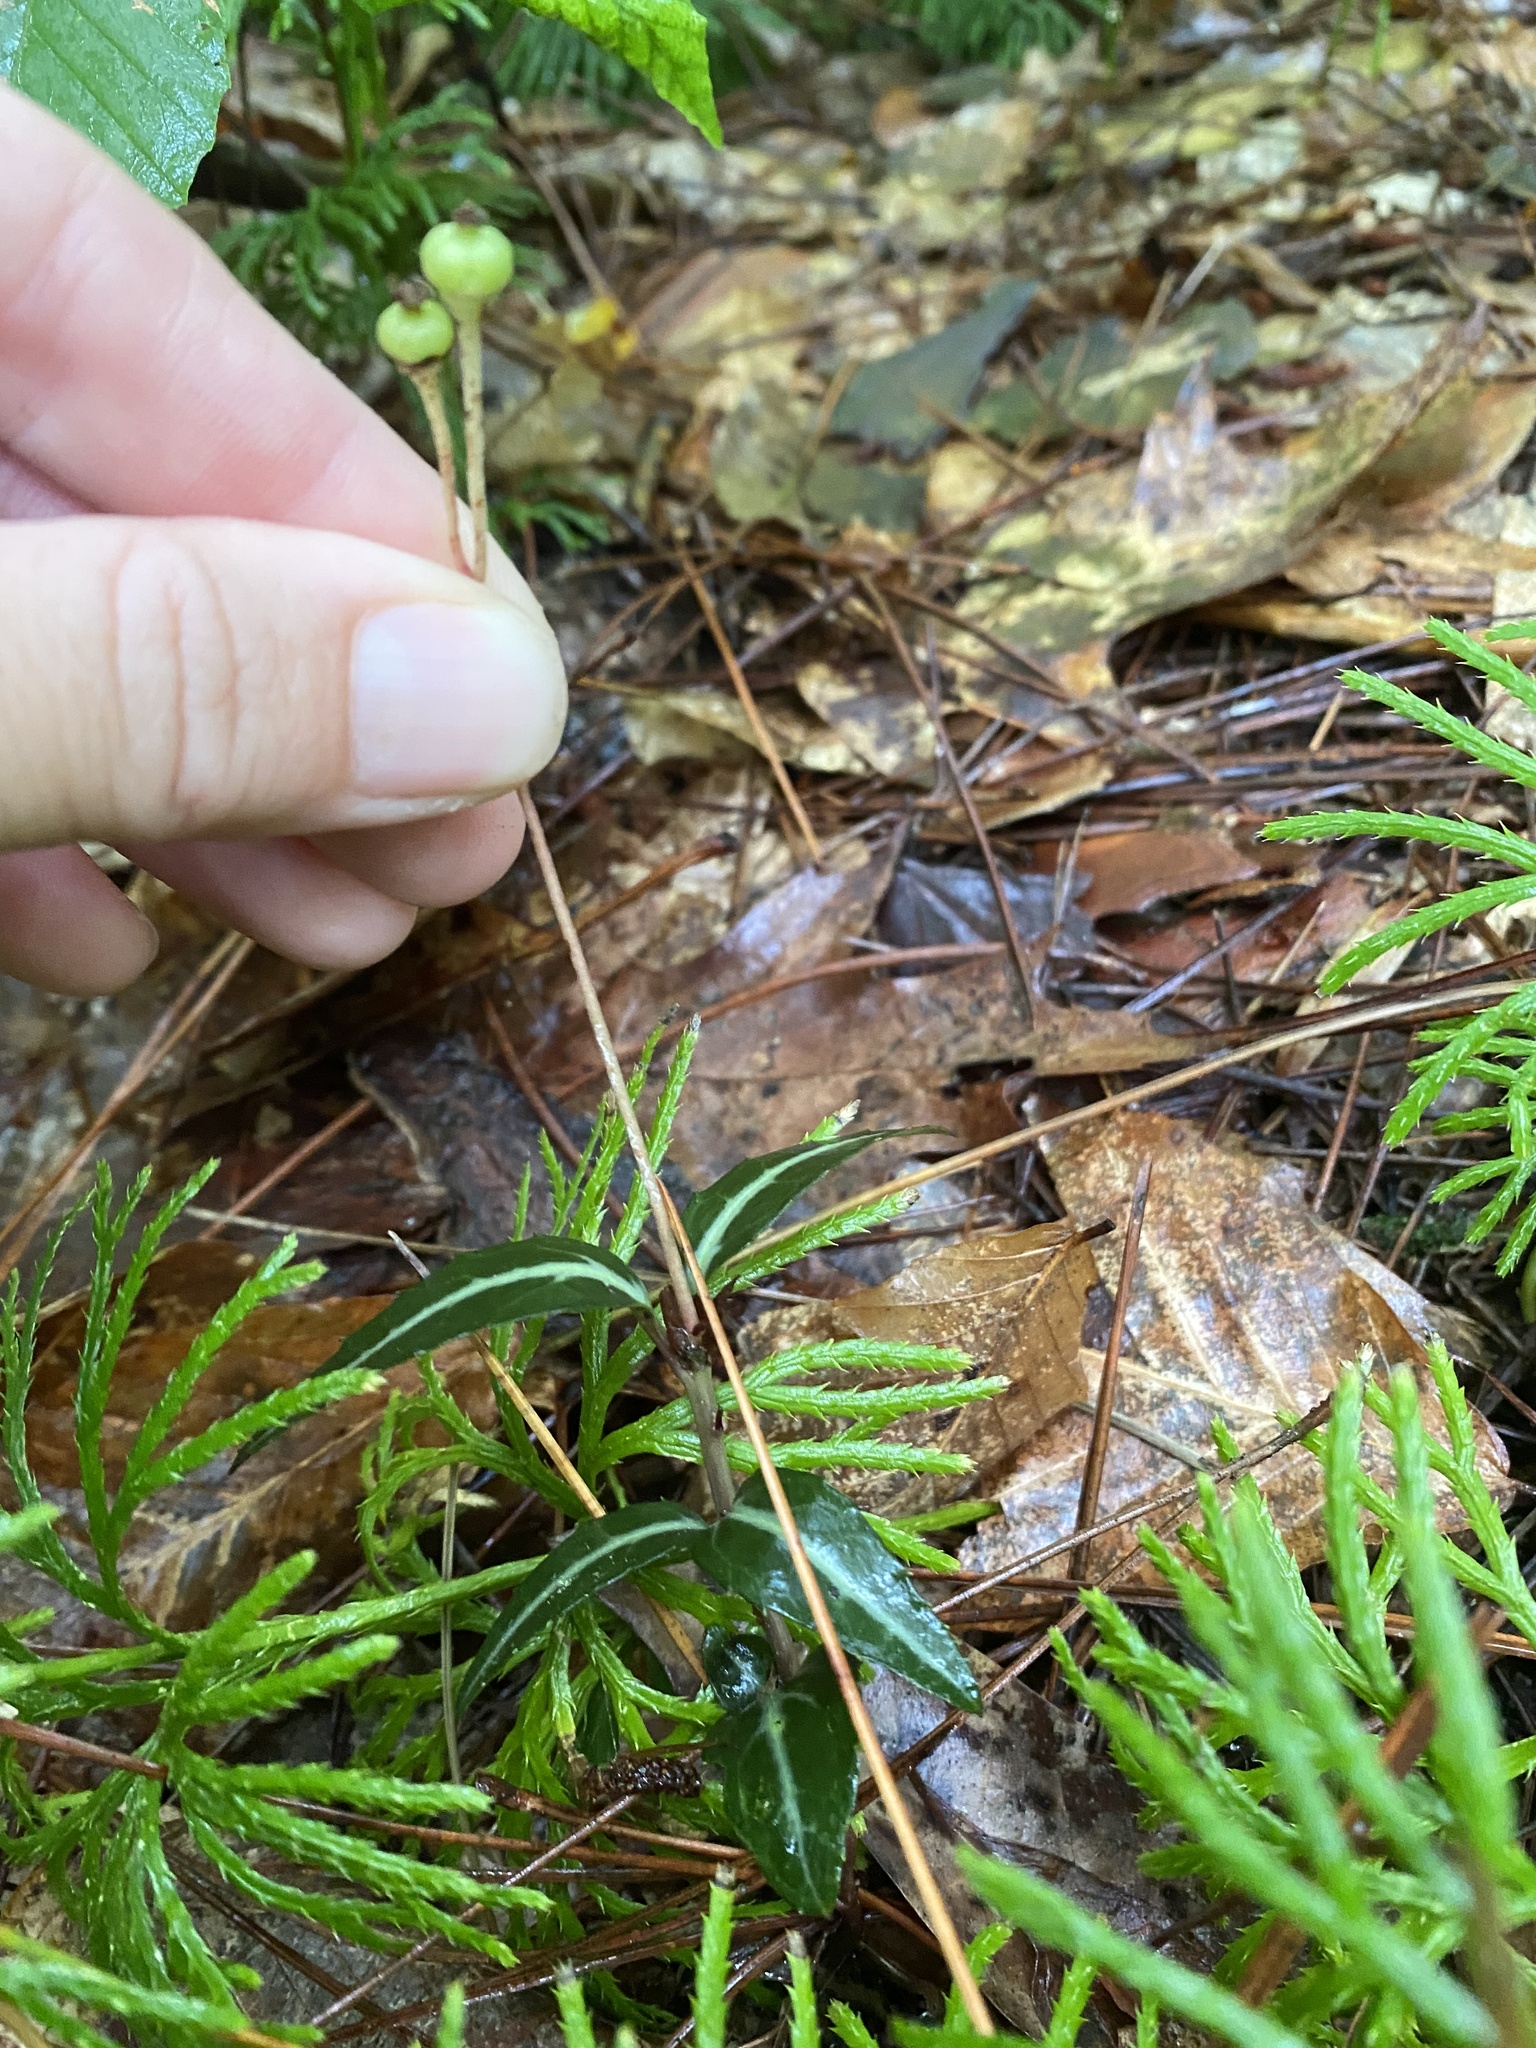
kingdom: Plantae
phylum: Tracheophyta
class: Magnoliopsida
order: Ericales
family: Ericaceae
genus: Chimaphila
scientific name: Chimaphila maculata
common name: Spotted pipsissewa
